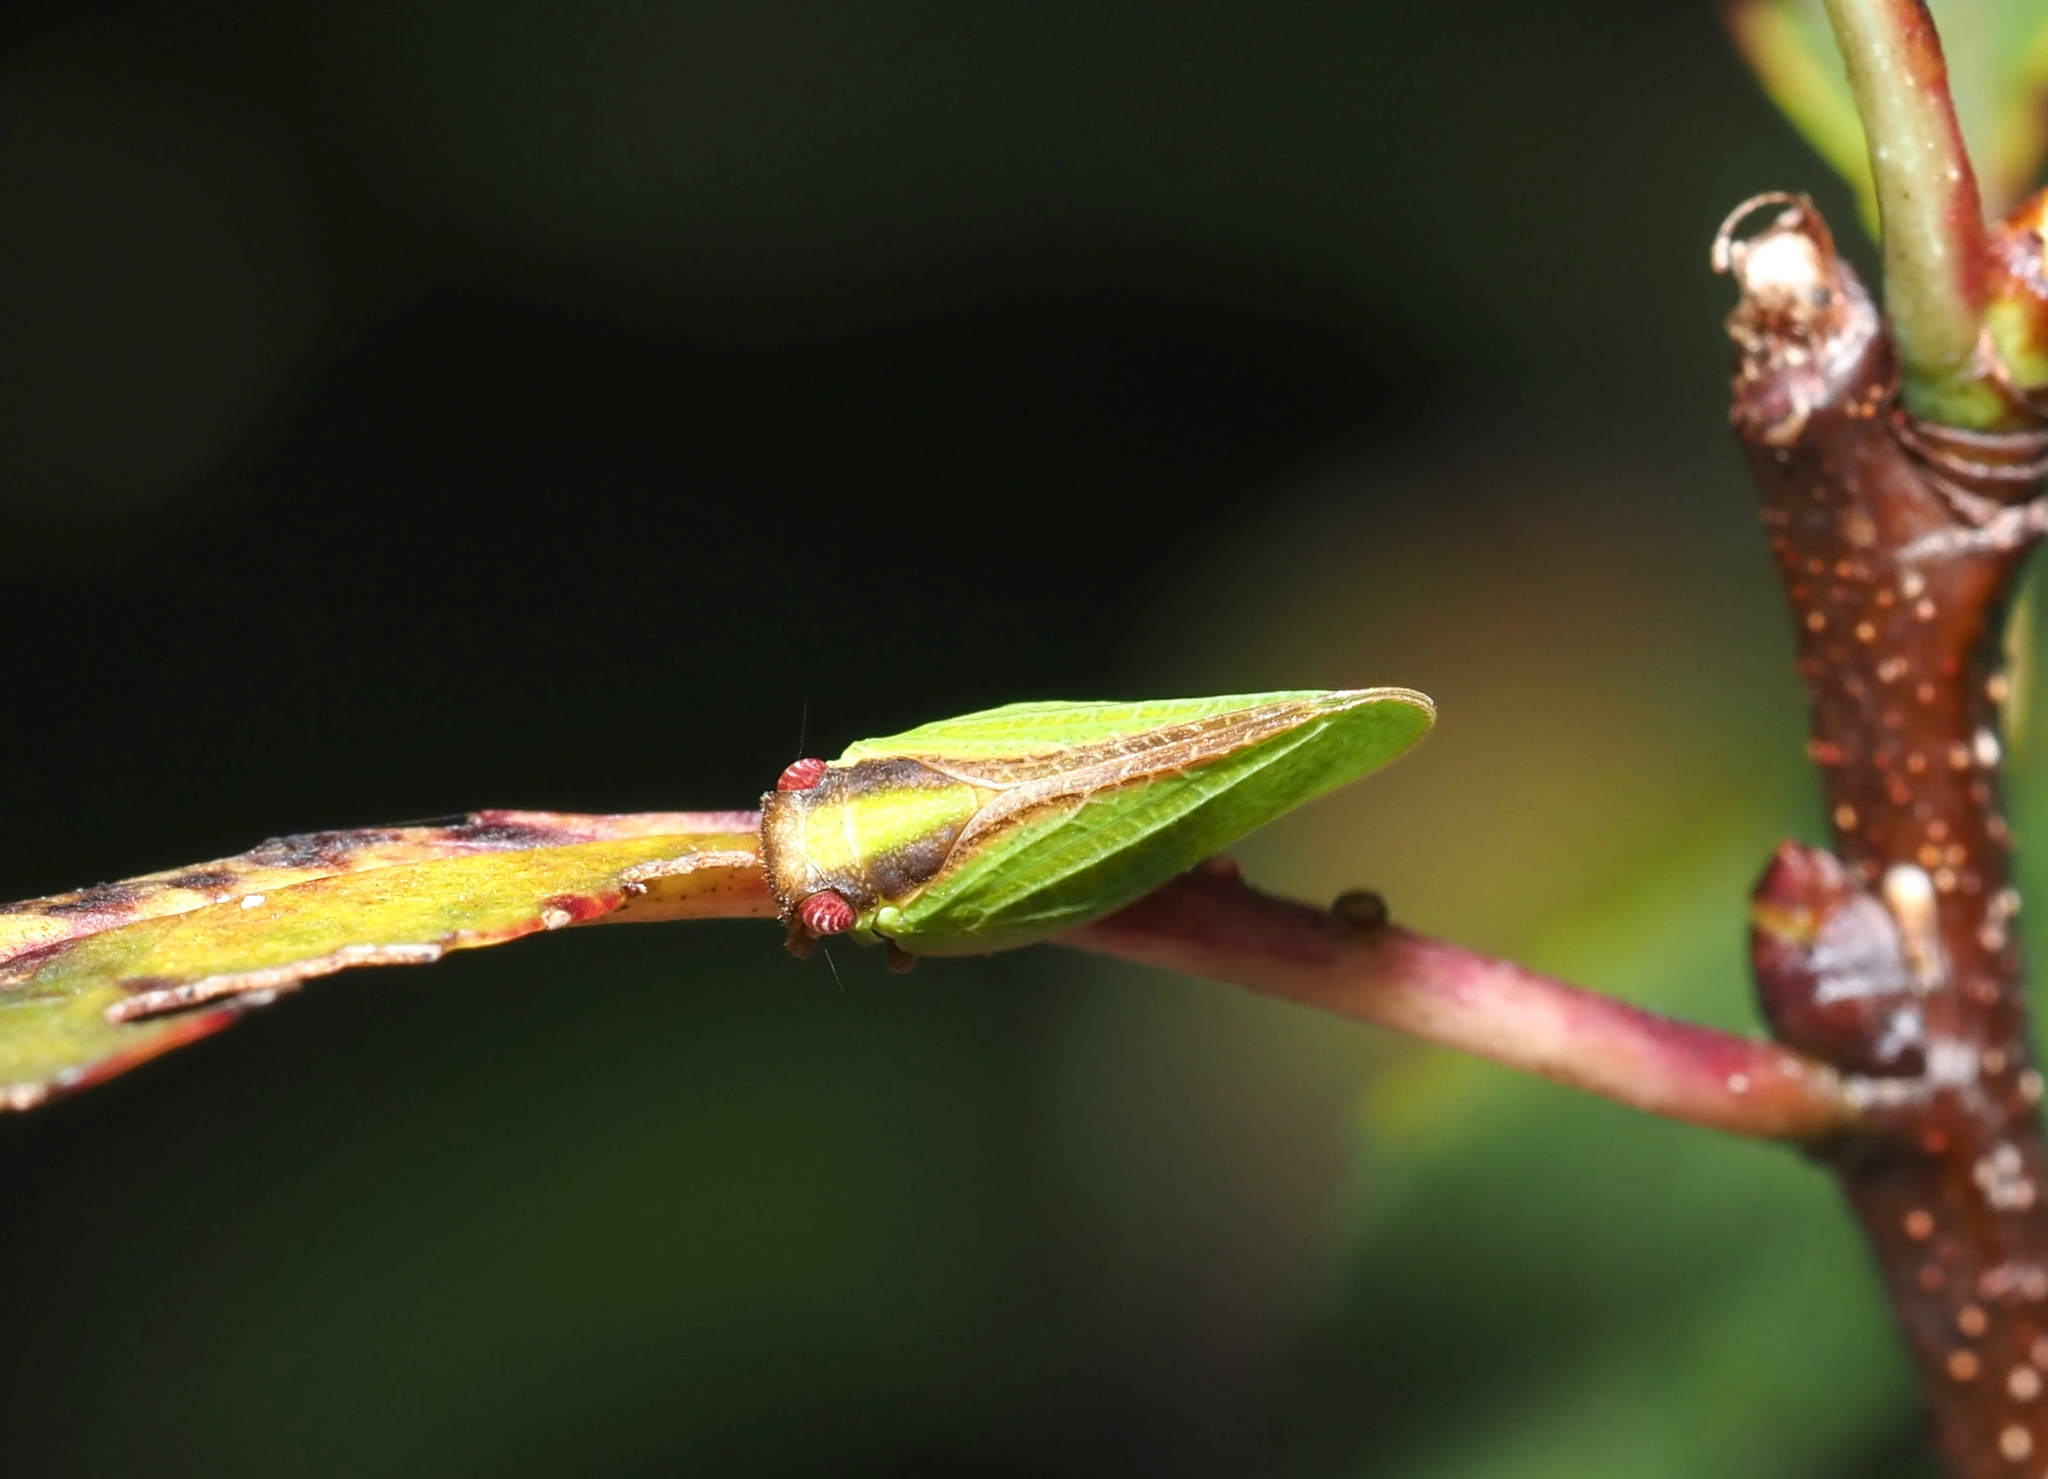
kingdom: Animalia
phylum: Arthropoda
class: Insecta
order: Hemiptera
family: Acanaloniidae
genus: Acanalonia
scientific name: Acanalonia bivittata
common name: Two-striped planthopper
